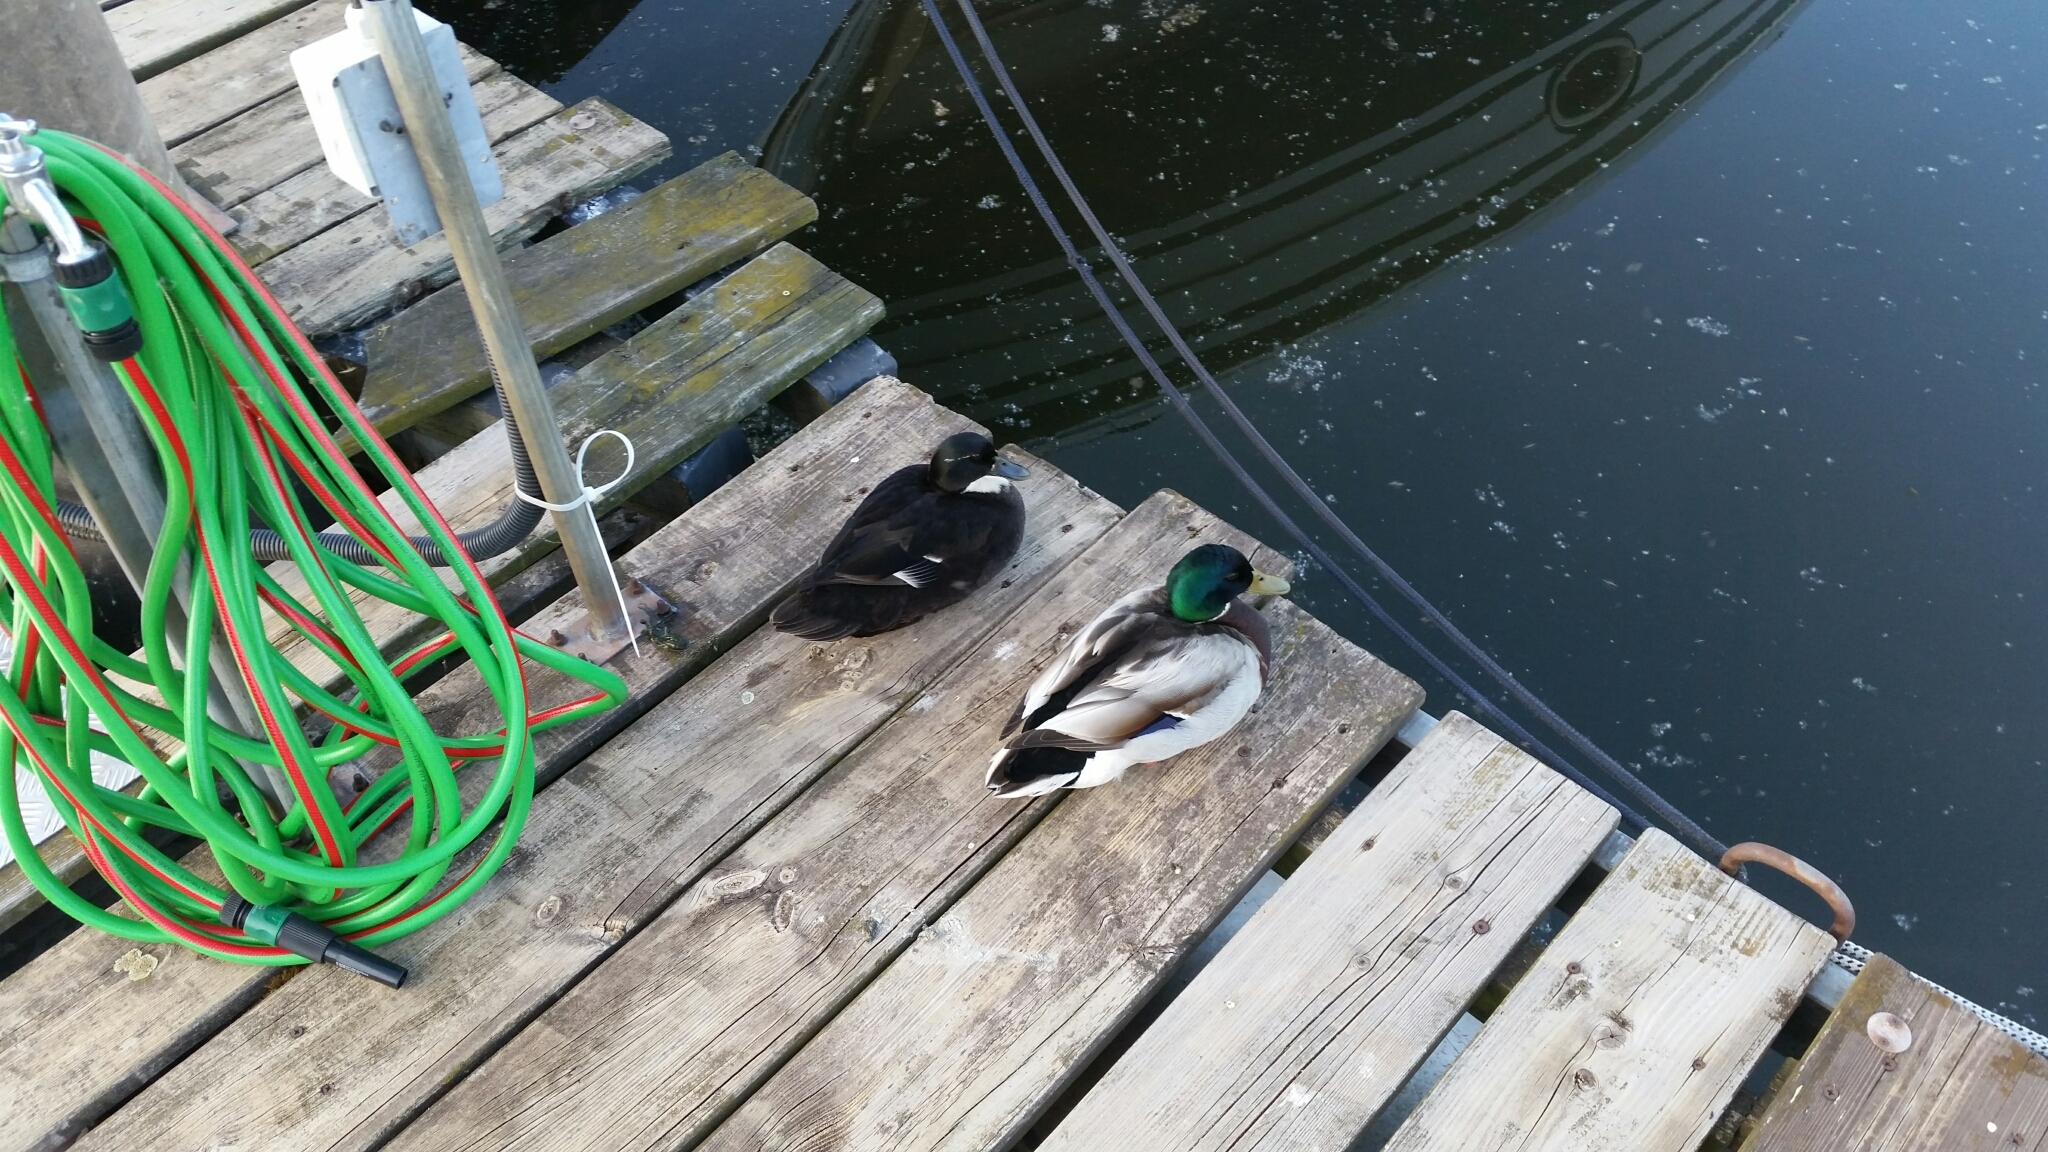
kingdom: Animalia
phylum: Chordata
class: Aves
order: Anseriformes
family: Anatidae
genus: Anas
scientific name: Anas platyrhynchos
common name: Mallard
